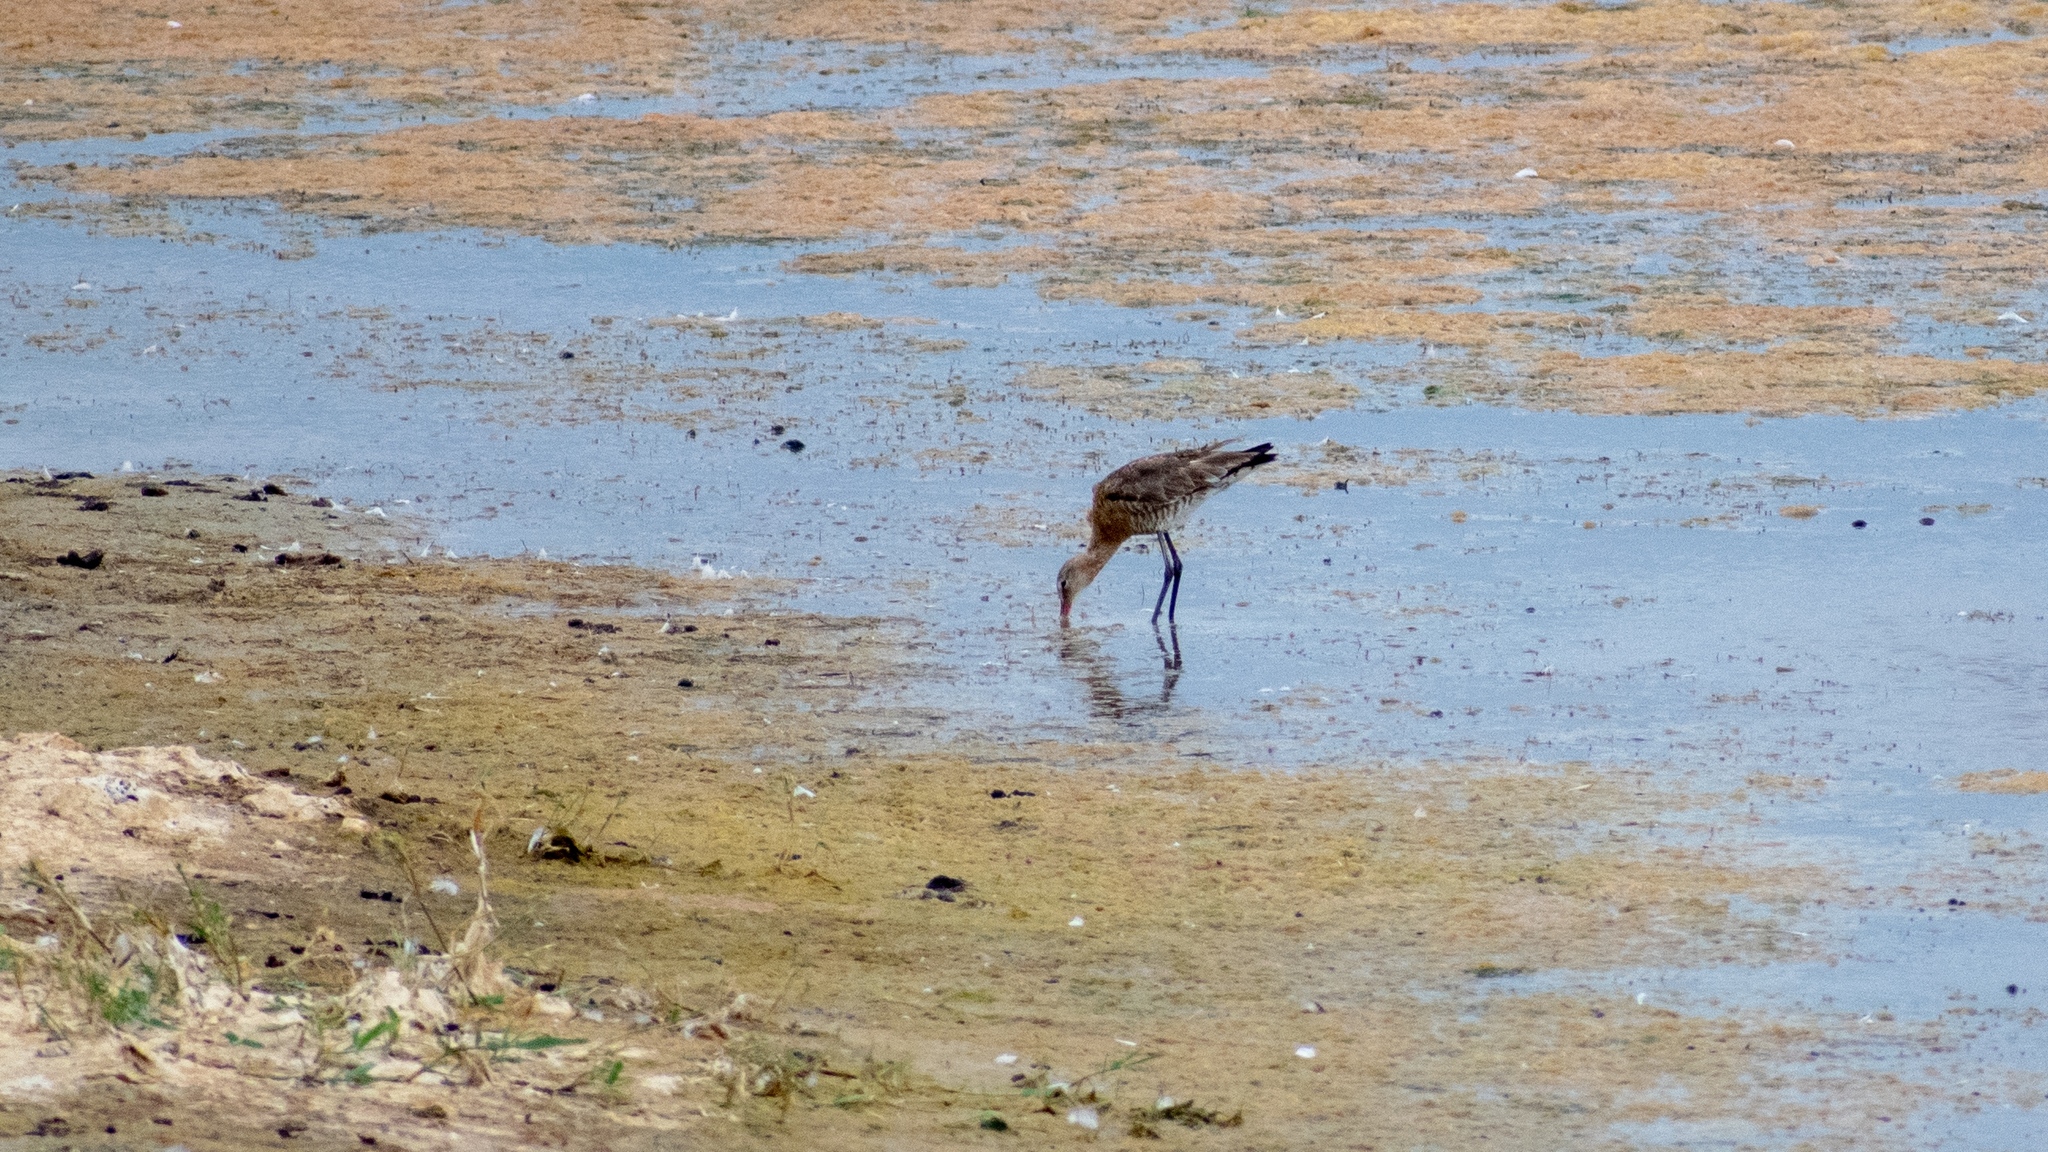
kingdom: Animalia
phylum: Chordata
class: Aves
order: Charadriiformes
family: Scolopacidae
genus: Limosa
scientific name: Limosa limosa
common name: Black-tailed godwit
